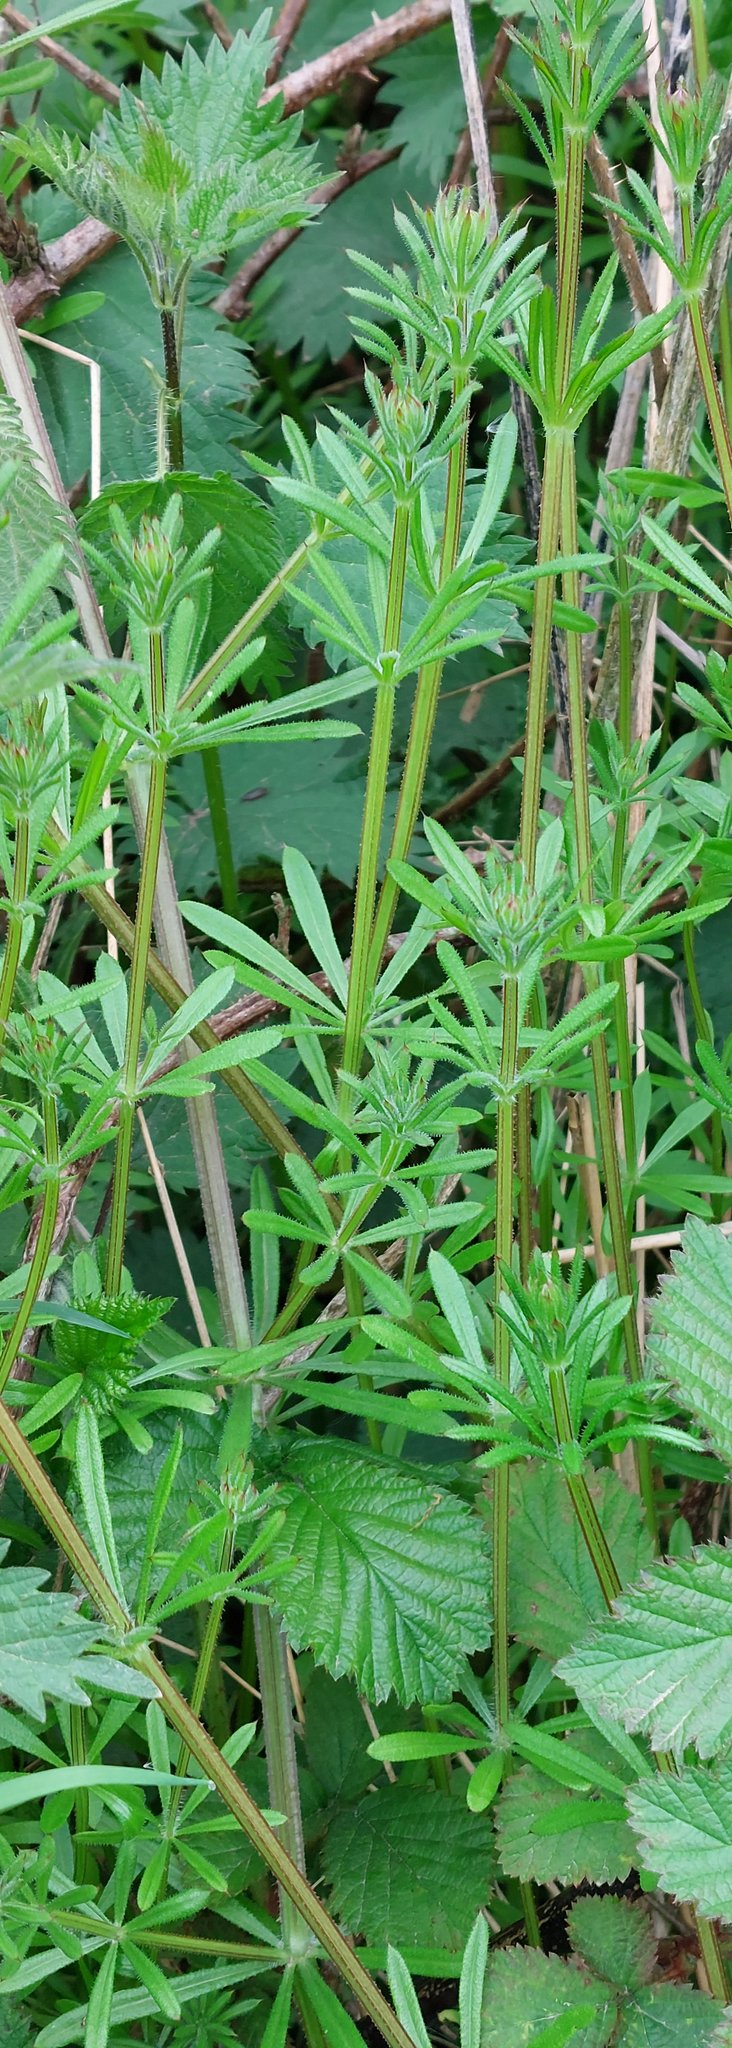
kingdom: Plantae
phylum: Tracheophyta
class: Magnoliopsida
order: Gentianales
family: Rubiaceae
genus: Galium
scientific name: Galium aparine
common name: Cleavers
